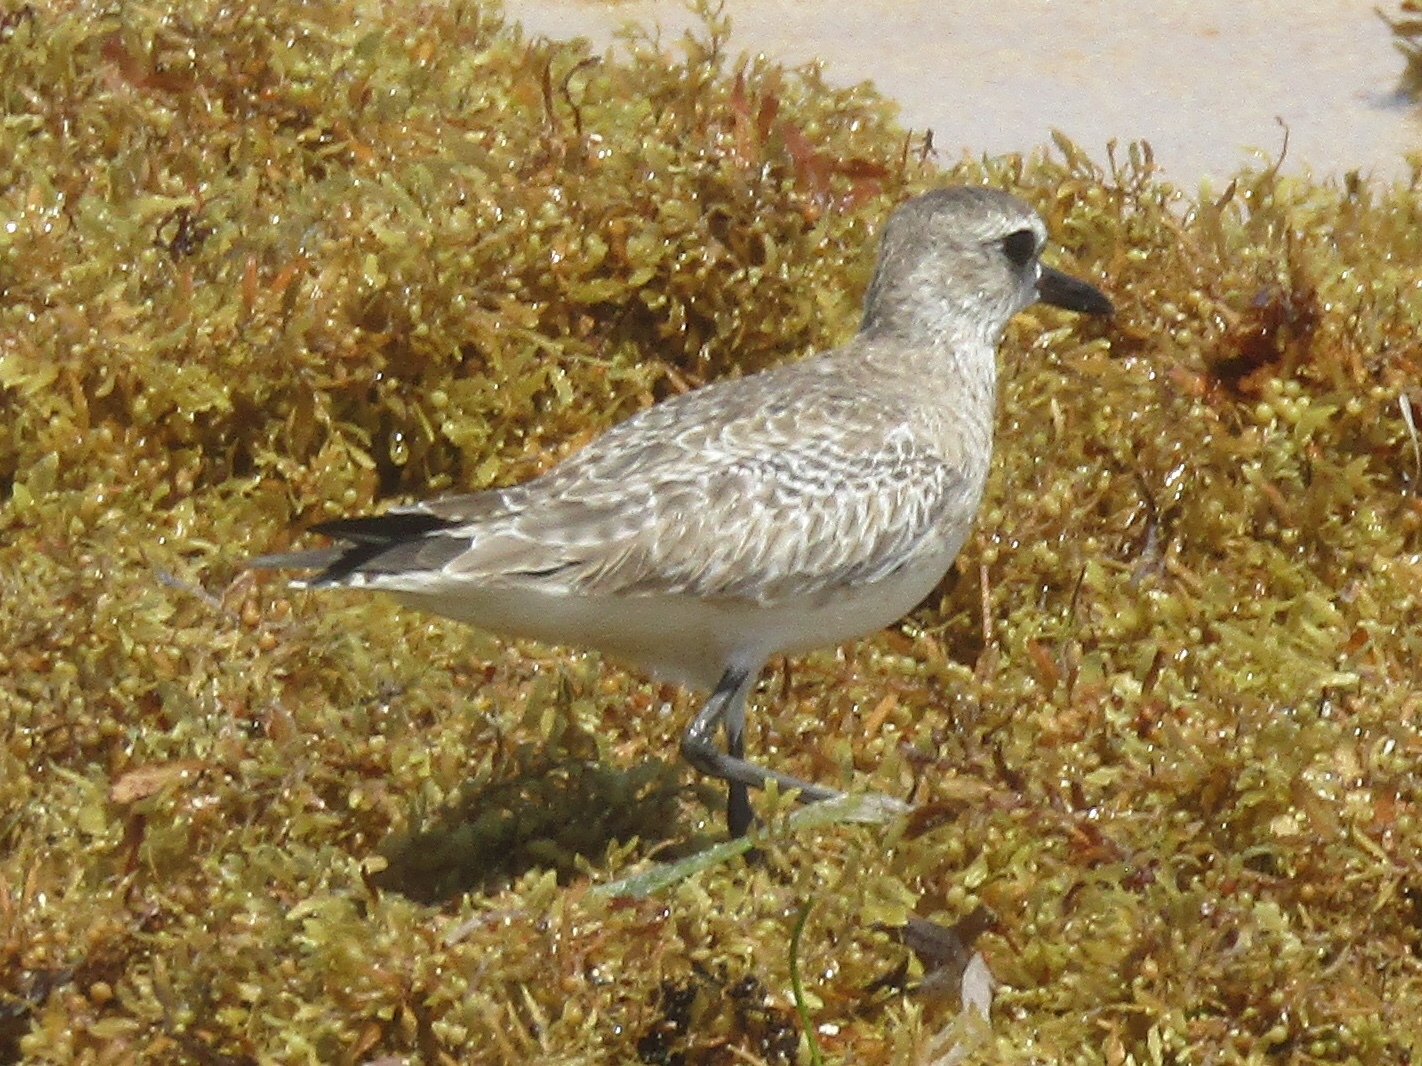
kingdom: Animalia
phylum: Chordata
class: Aves
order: Charadriiformes
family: Charadriidae
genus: Pluvialis
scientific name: Pluvialis squatarola
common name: Grey plover
